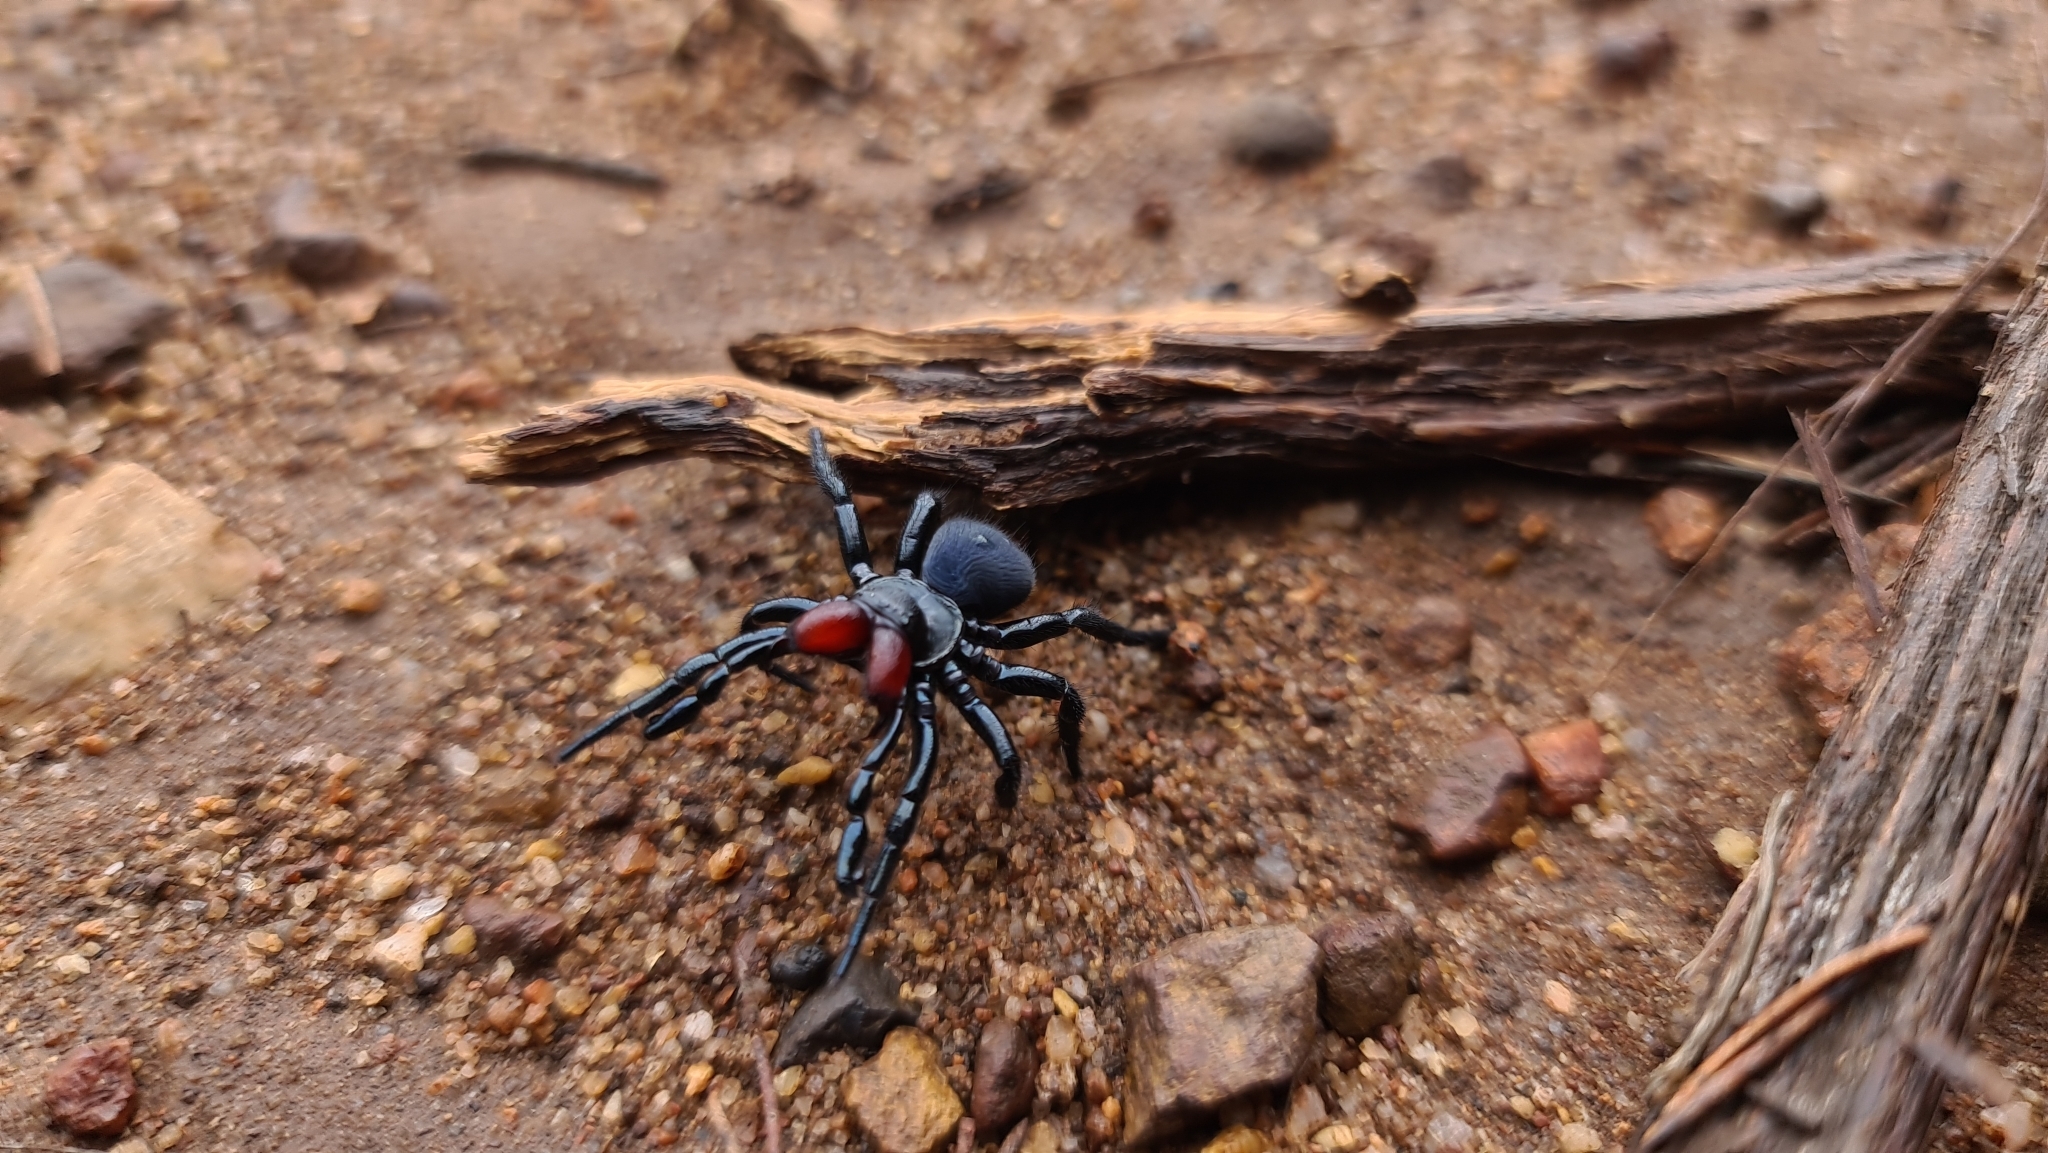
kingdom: Animalia
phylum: Arthropoda
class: Arachnida
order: Araneae
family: Actinopodidae
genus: Missulena
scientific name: Missulena granulosa
